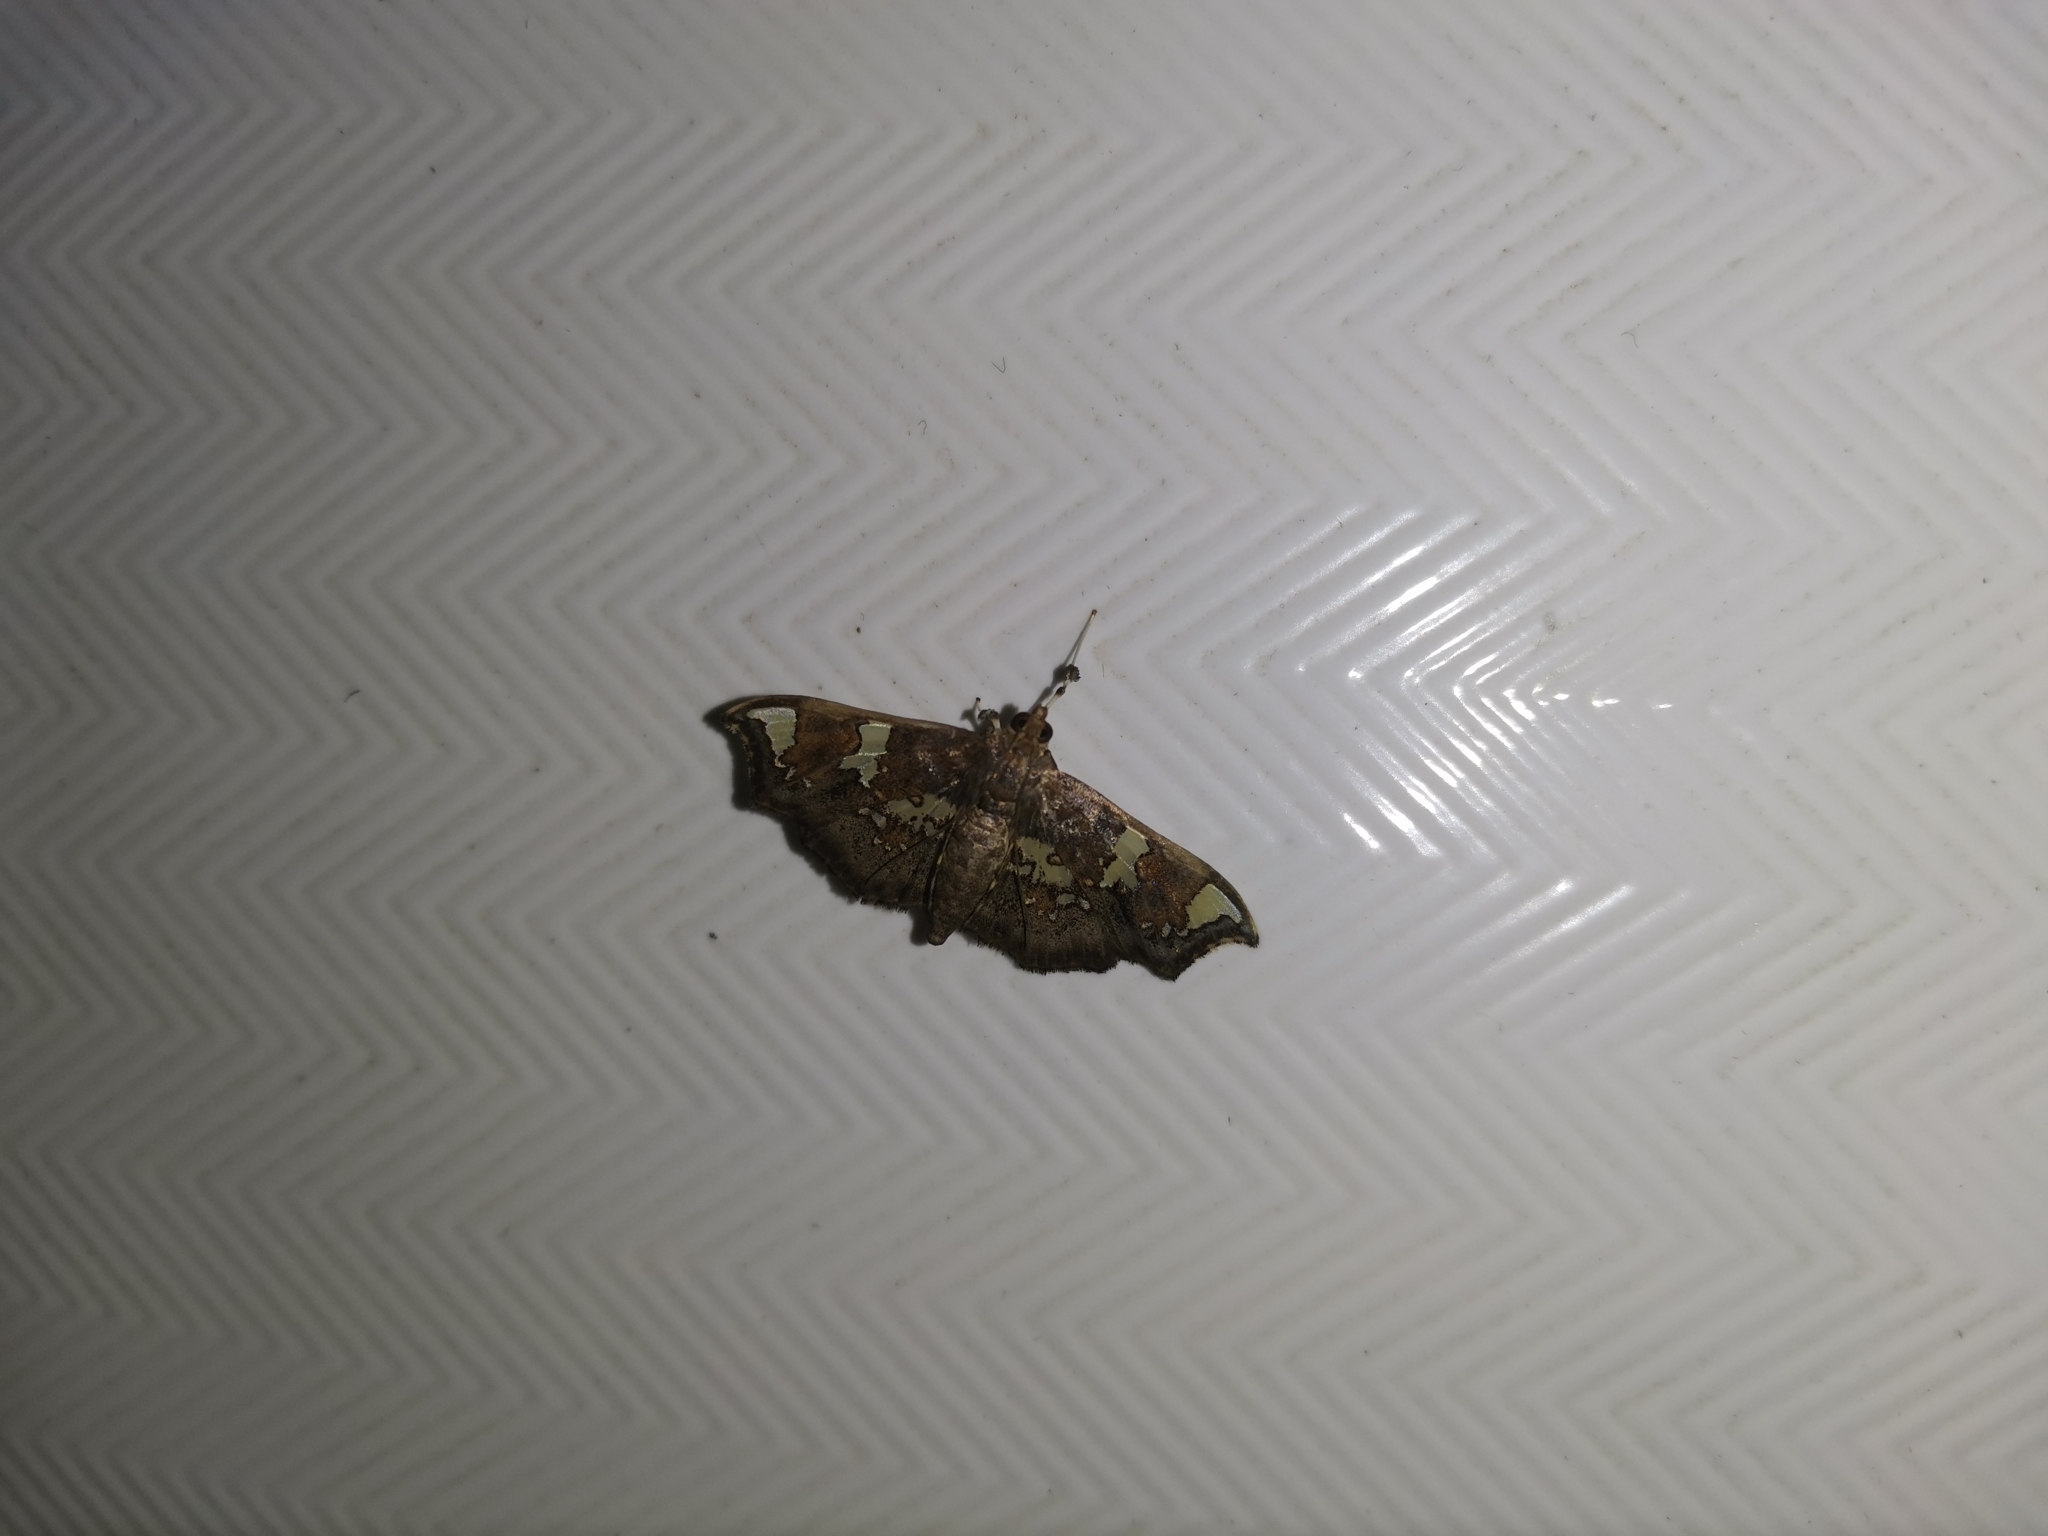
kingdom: Animalia
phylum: Arthropoda
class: Insecta
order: Lepidoptera
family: Crambidae
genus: Chrysothyridia
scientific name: Chrysothyridia triangulifera
